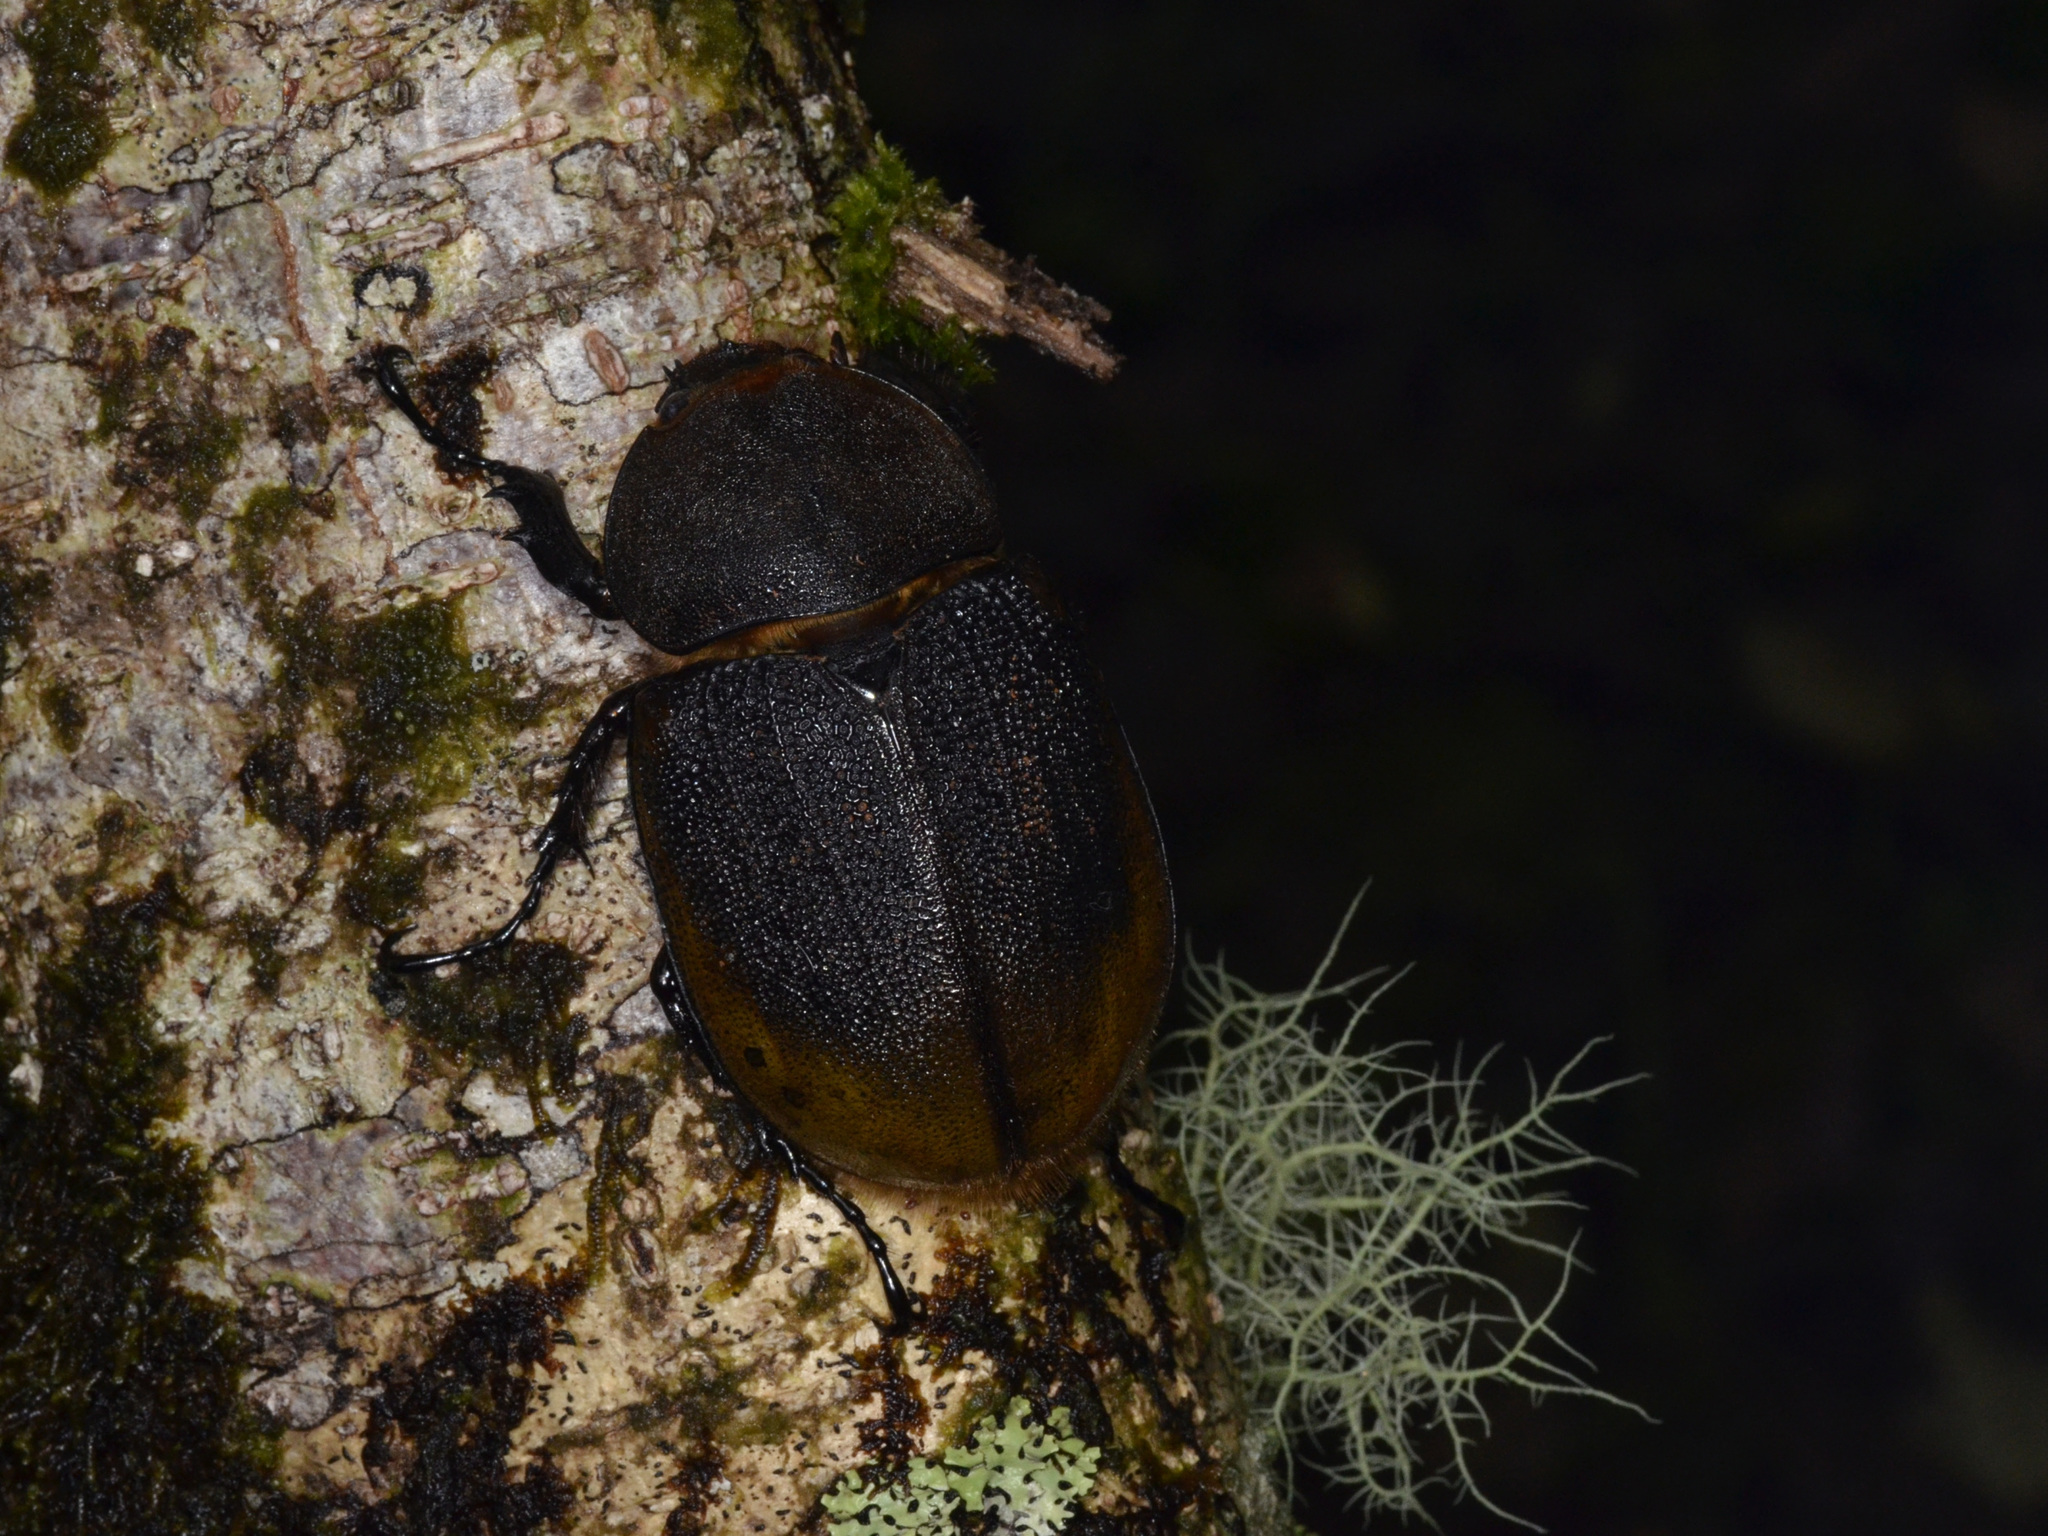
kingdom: Animalia
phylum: Arthropoda
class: Insecta
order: Coleoptera
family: Scarabaeidae
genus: Dynastes
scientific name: Dynastes
